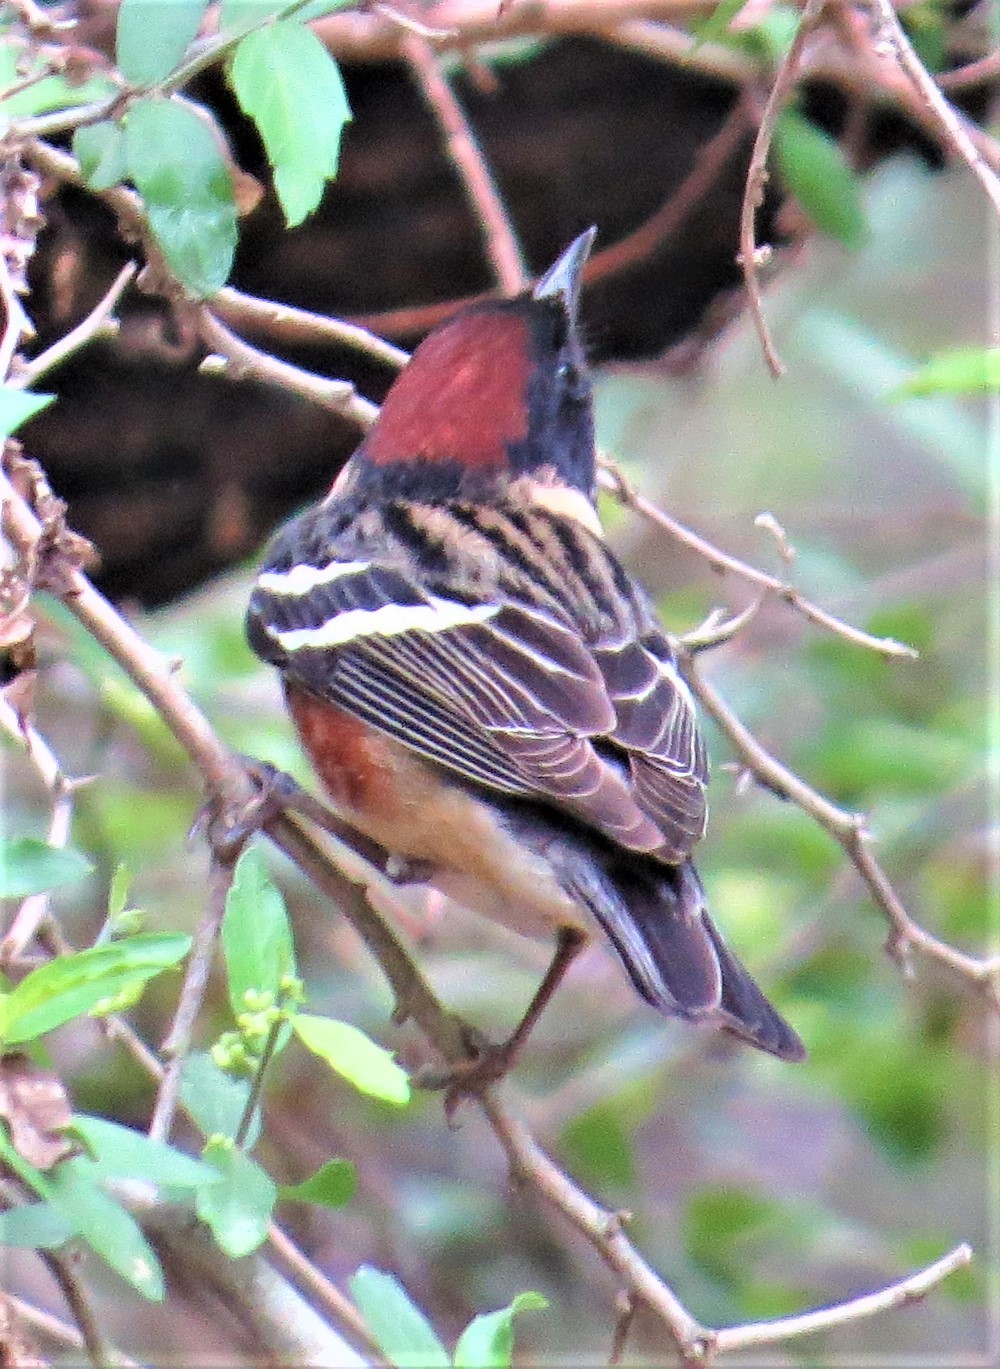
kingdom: Animalia
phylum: Chordata
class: Aves
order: Passeriformes
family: Parulidae
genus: Setophaga
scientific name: Setophaga castanea
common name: Bay-breasted warbler
